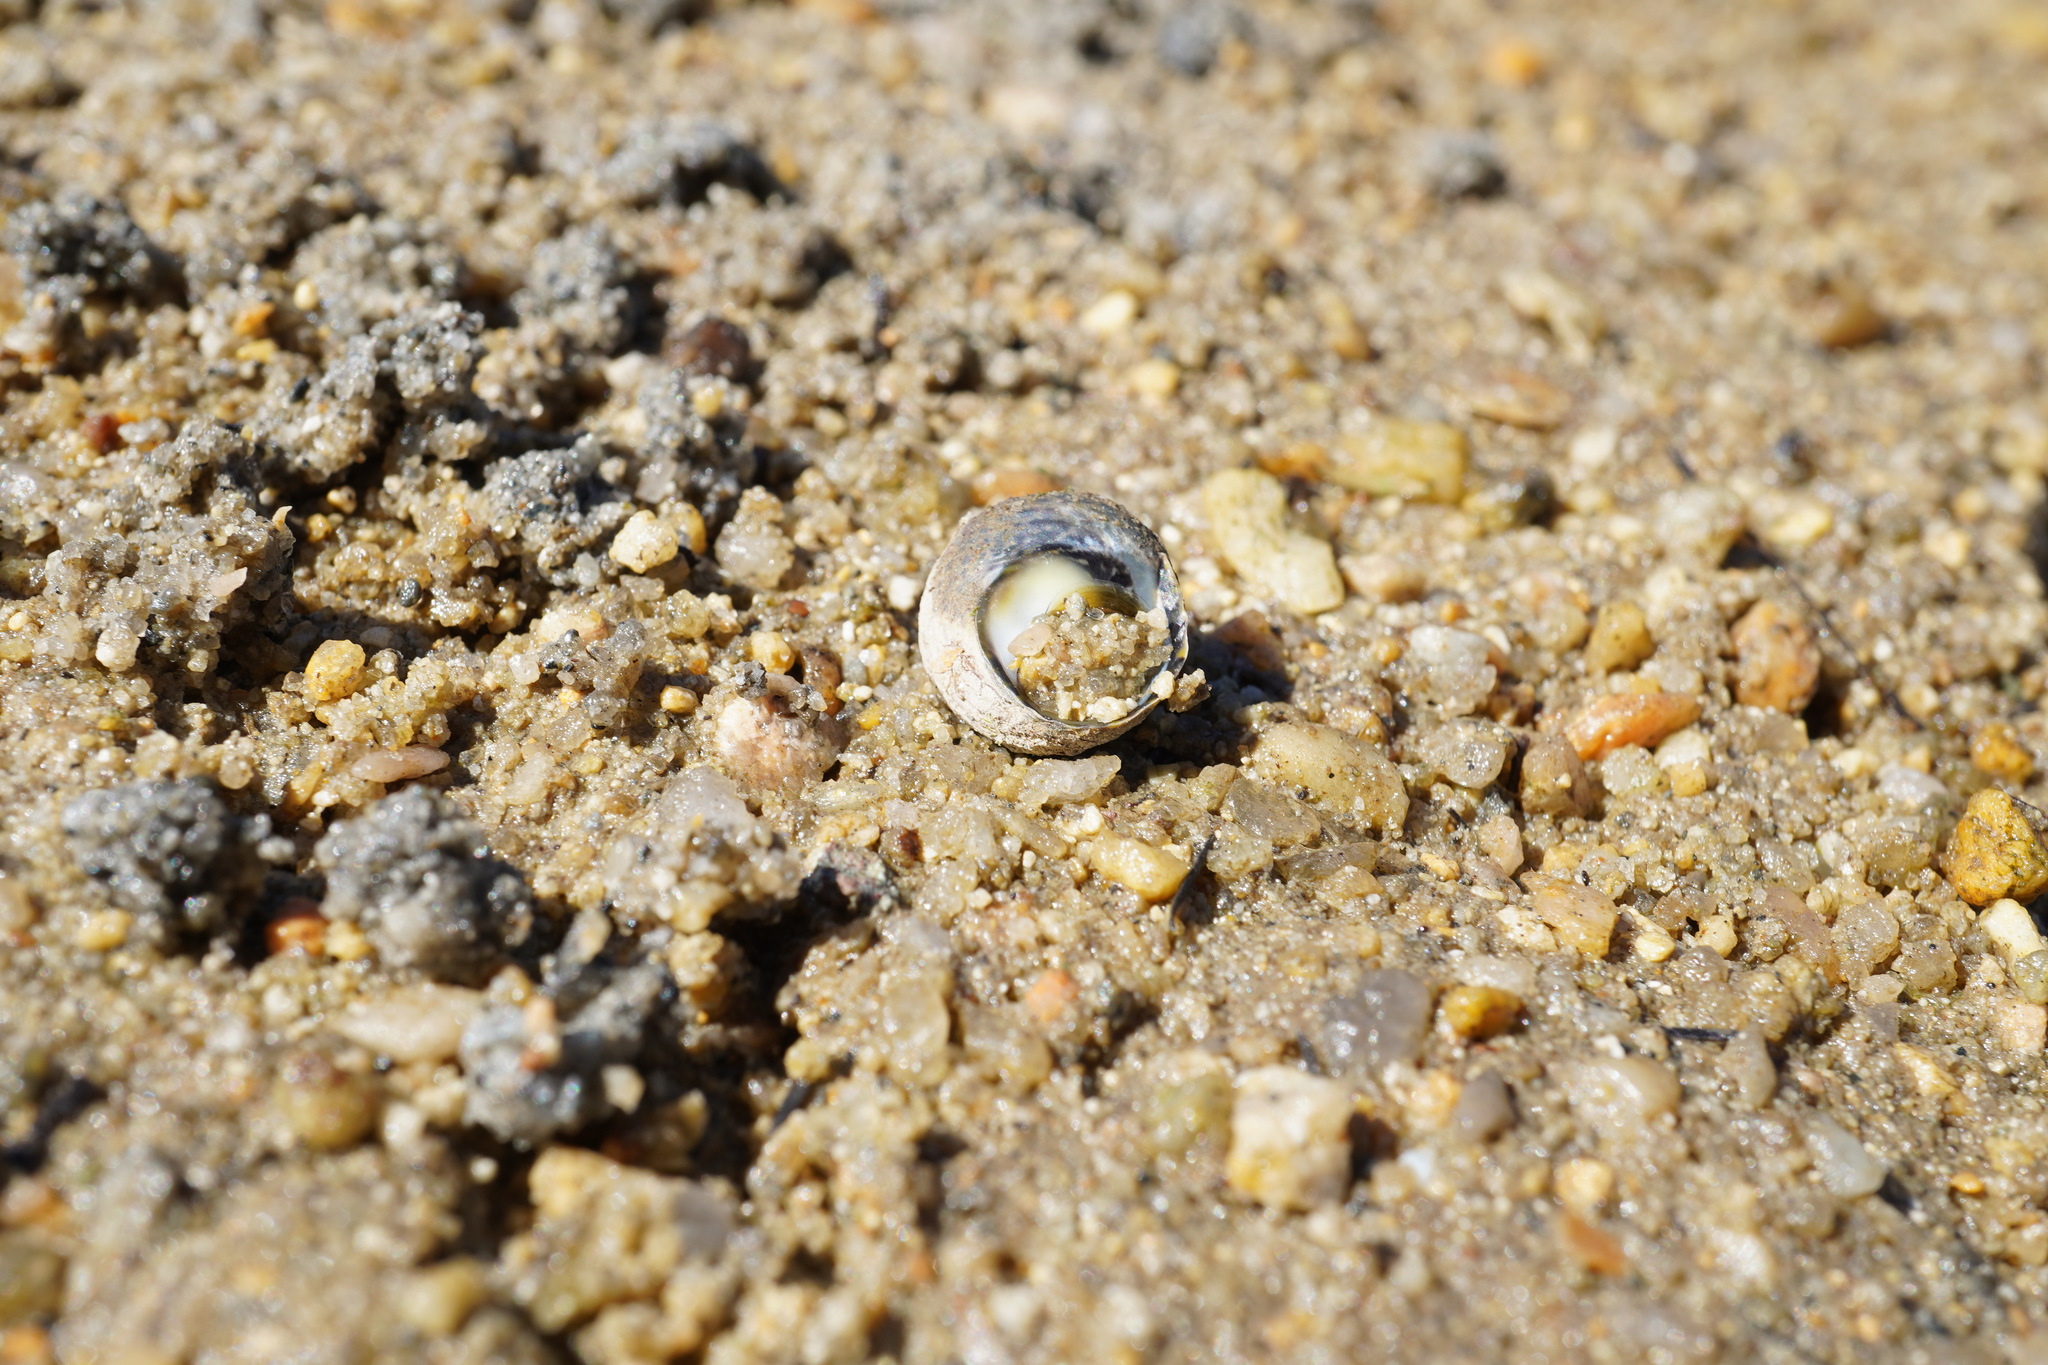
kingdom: Animalia
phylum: Mollusca
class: Gastropoda
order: Trochida
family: Trochidae
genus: Diloma
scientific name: Diloma subrostratum
